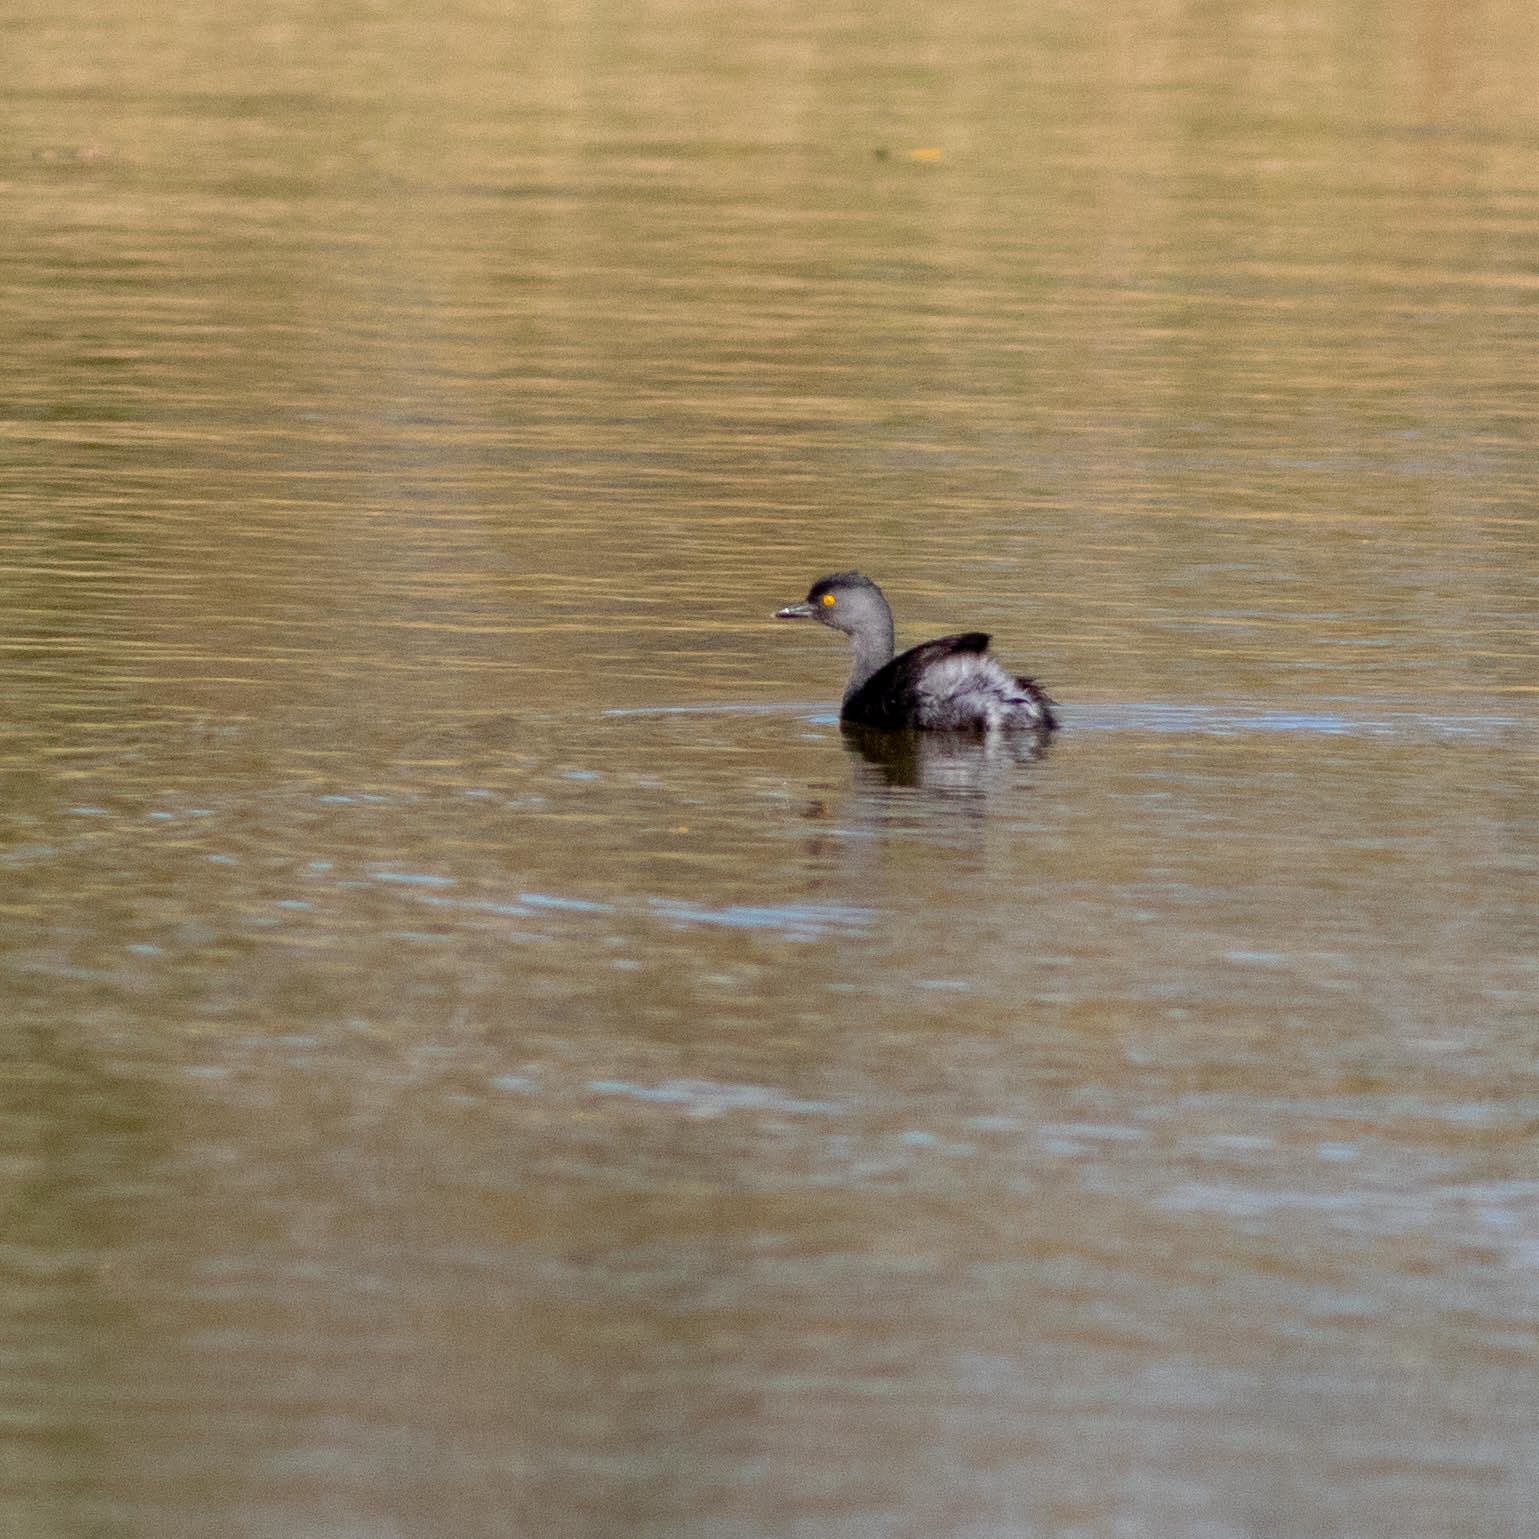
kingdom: Animalia
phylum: Chordata
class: Aves
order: Podicipediformes
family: Podicipedidae
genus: Tachybaptus
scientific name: Tachybaptus dominicus
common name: Least grebe
